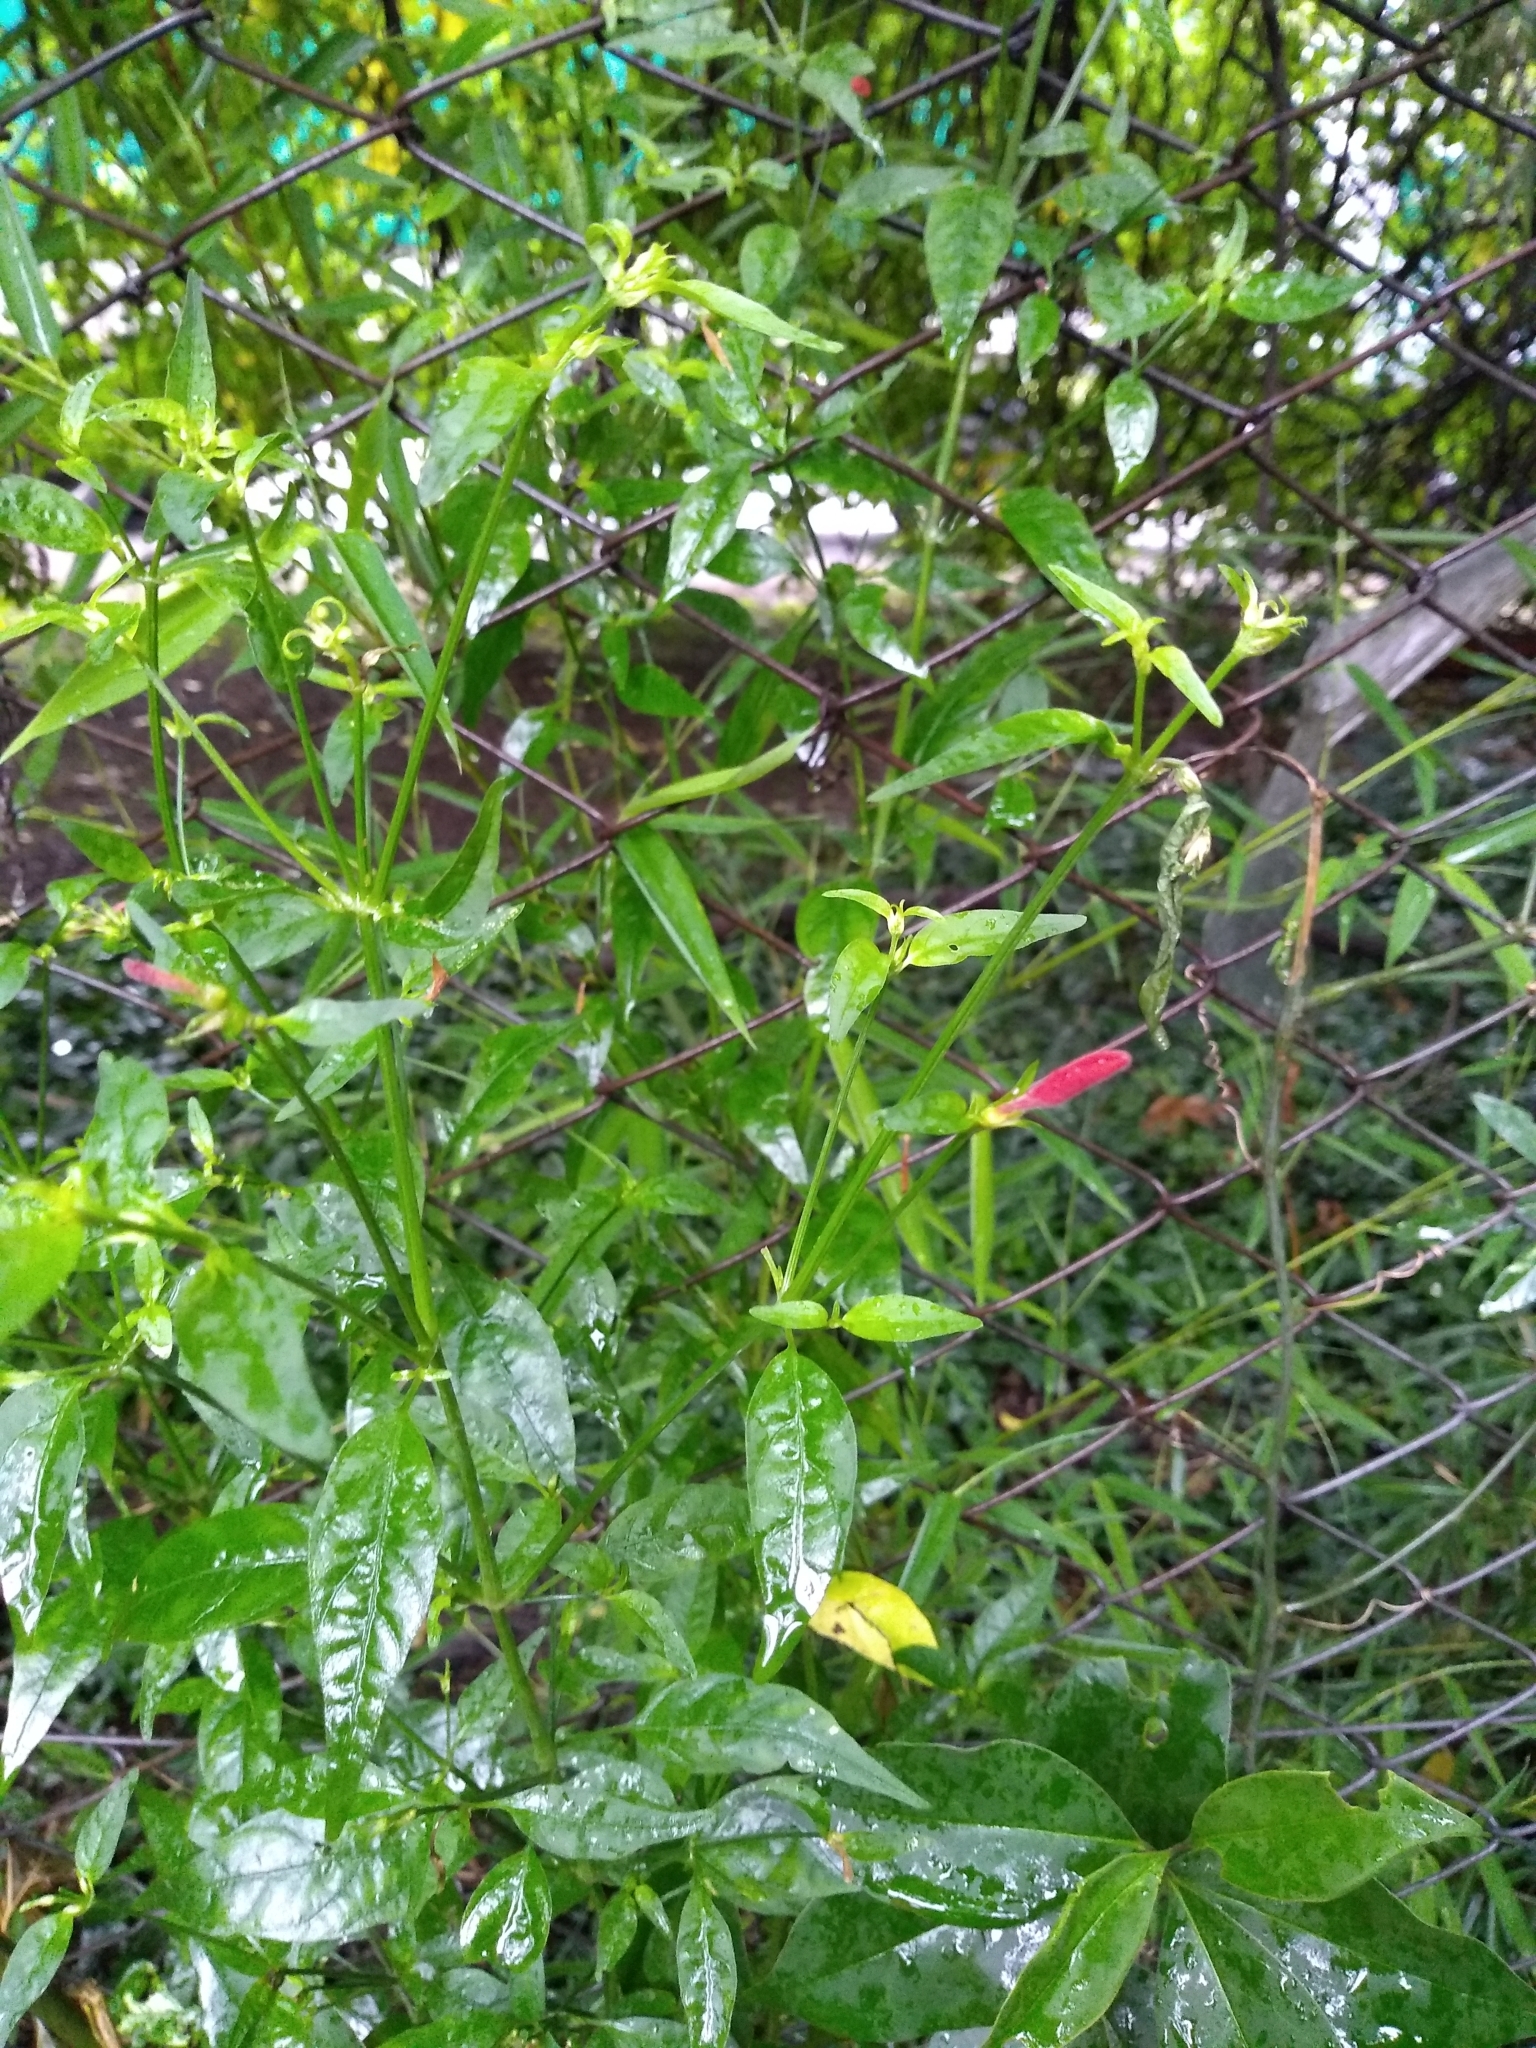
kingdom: Plantae
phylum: Tracheophyta
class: Magnoliopsida
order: Lamiales
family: Acanthaceae
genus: Dicliptera
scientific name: Dicliptera squarrosa
